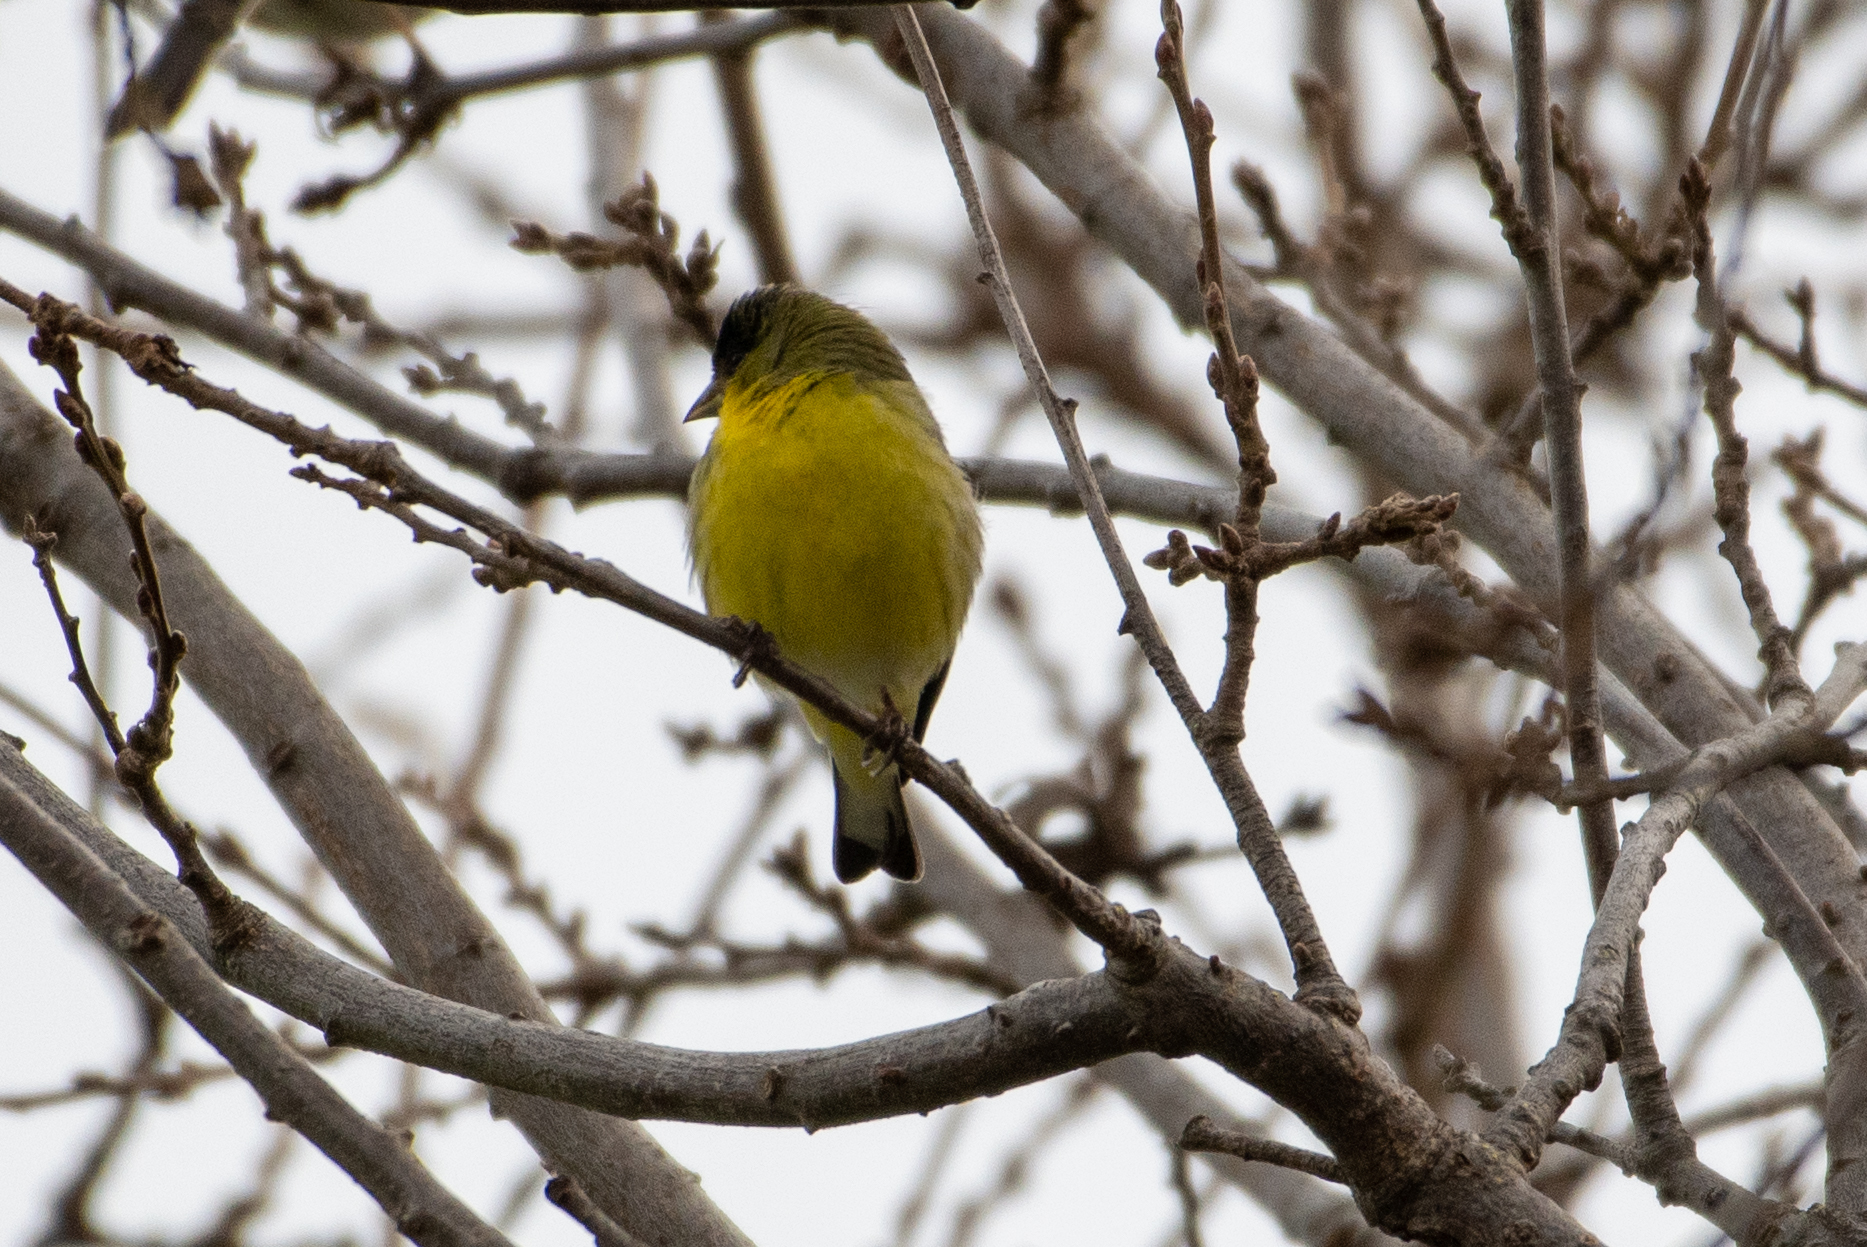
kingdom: Animalia
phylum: Chordata
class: Aves
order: Passeriformes
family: Fringillidae
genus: Spinus
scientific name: Spinus psaltria
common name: Lesser goldfinch
